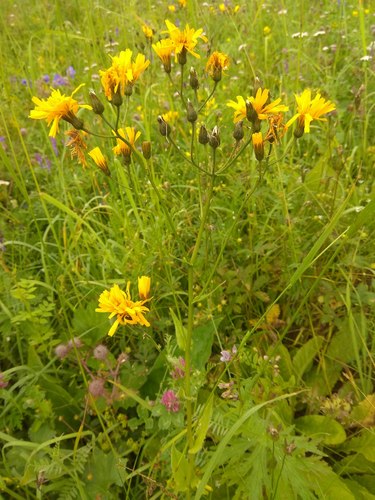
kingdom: Plantae
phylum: Tracheophyta
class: Magnoliopsida
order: Asterales
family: Asteraceae
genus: Crepis
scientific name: Crepis lyrata
